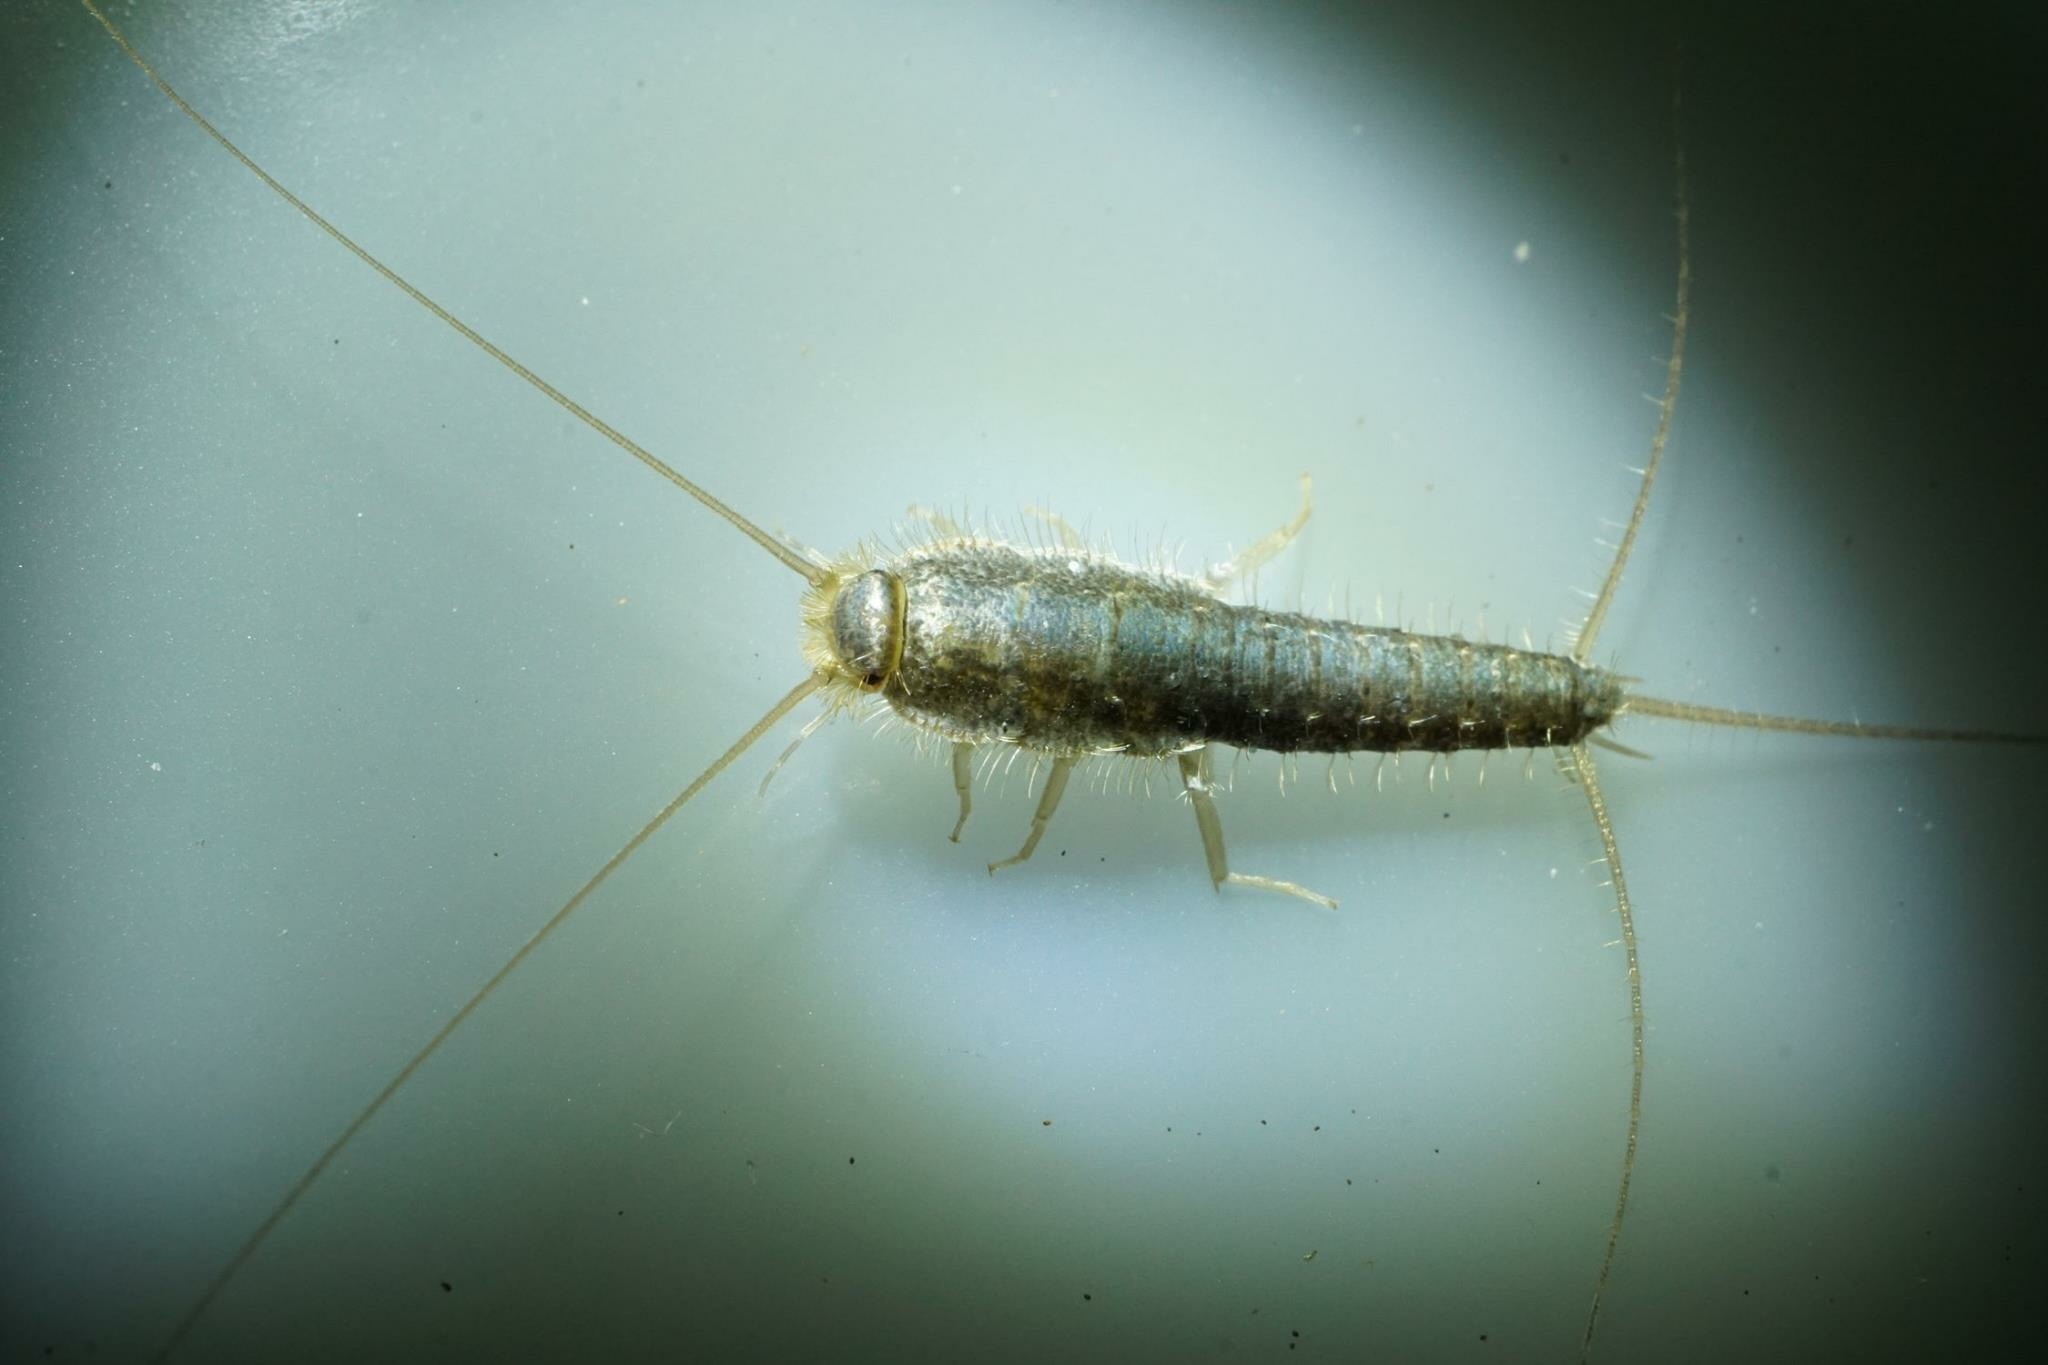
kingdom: Animalia
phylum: Arthropoda
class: Insecta
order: Zygentoma
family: Lepismatidae
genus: Ctenolepisma
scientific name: Ctenolepisma longicaudatum
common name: Silverfish
